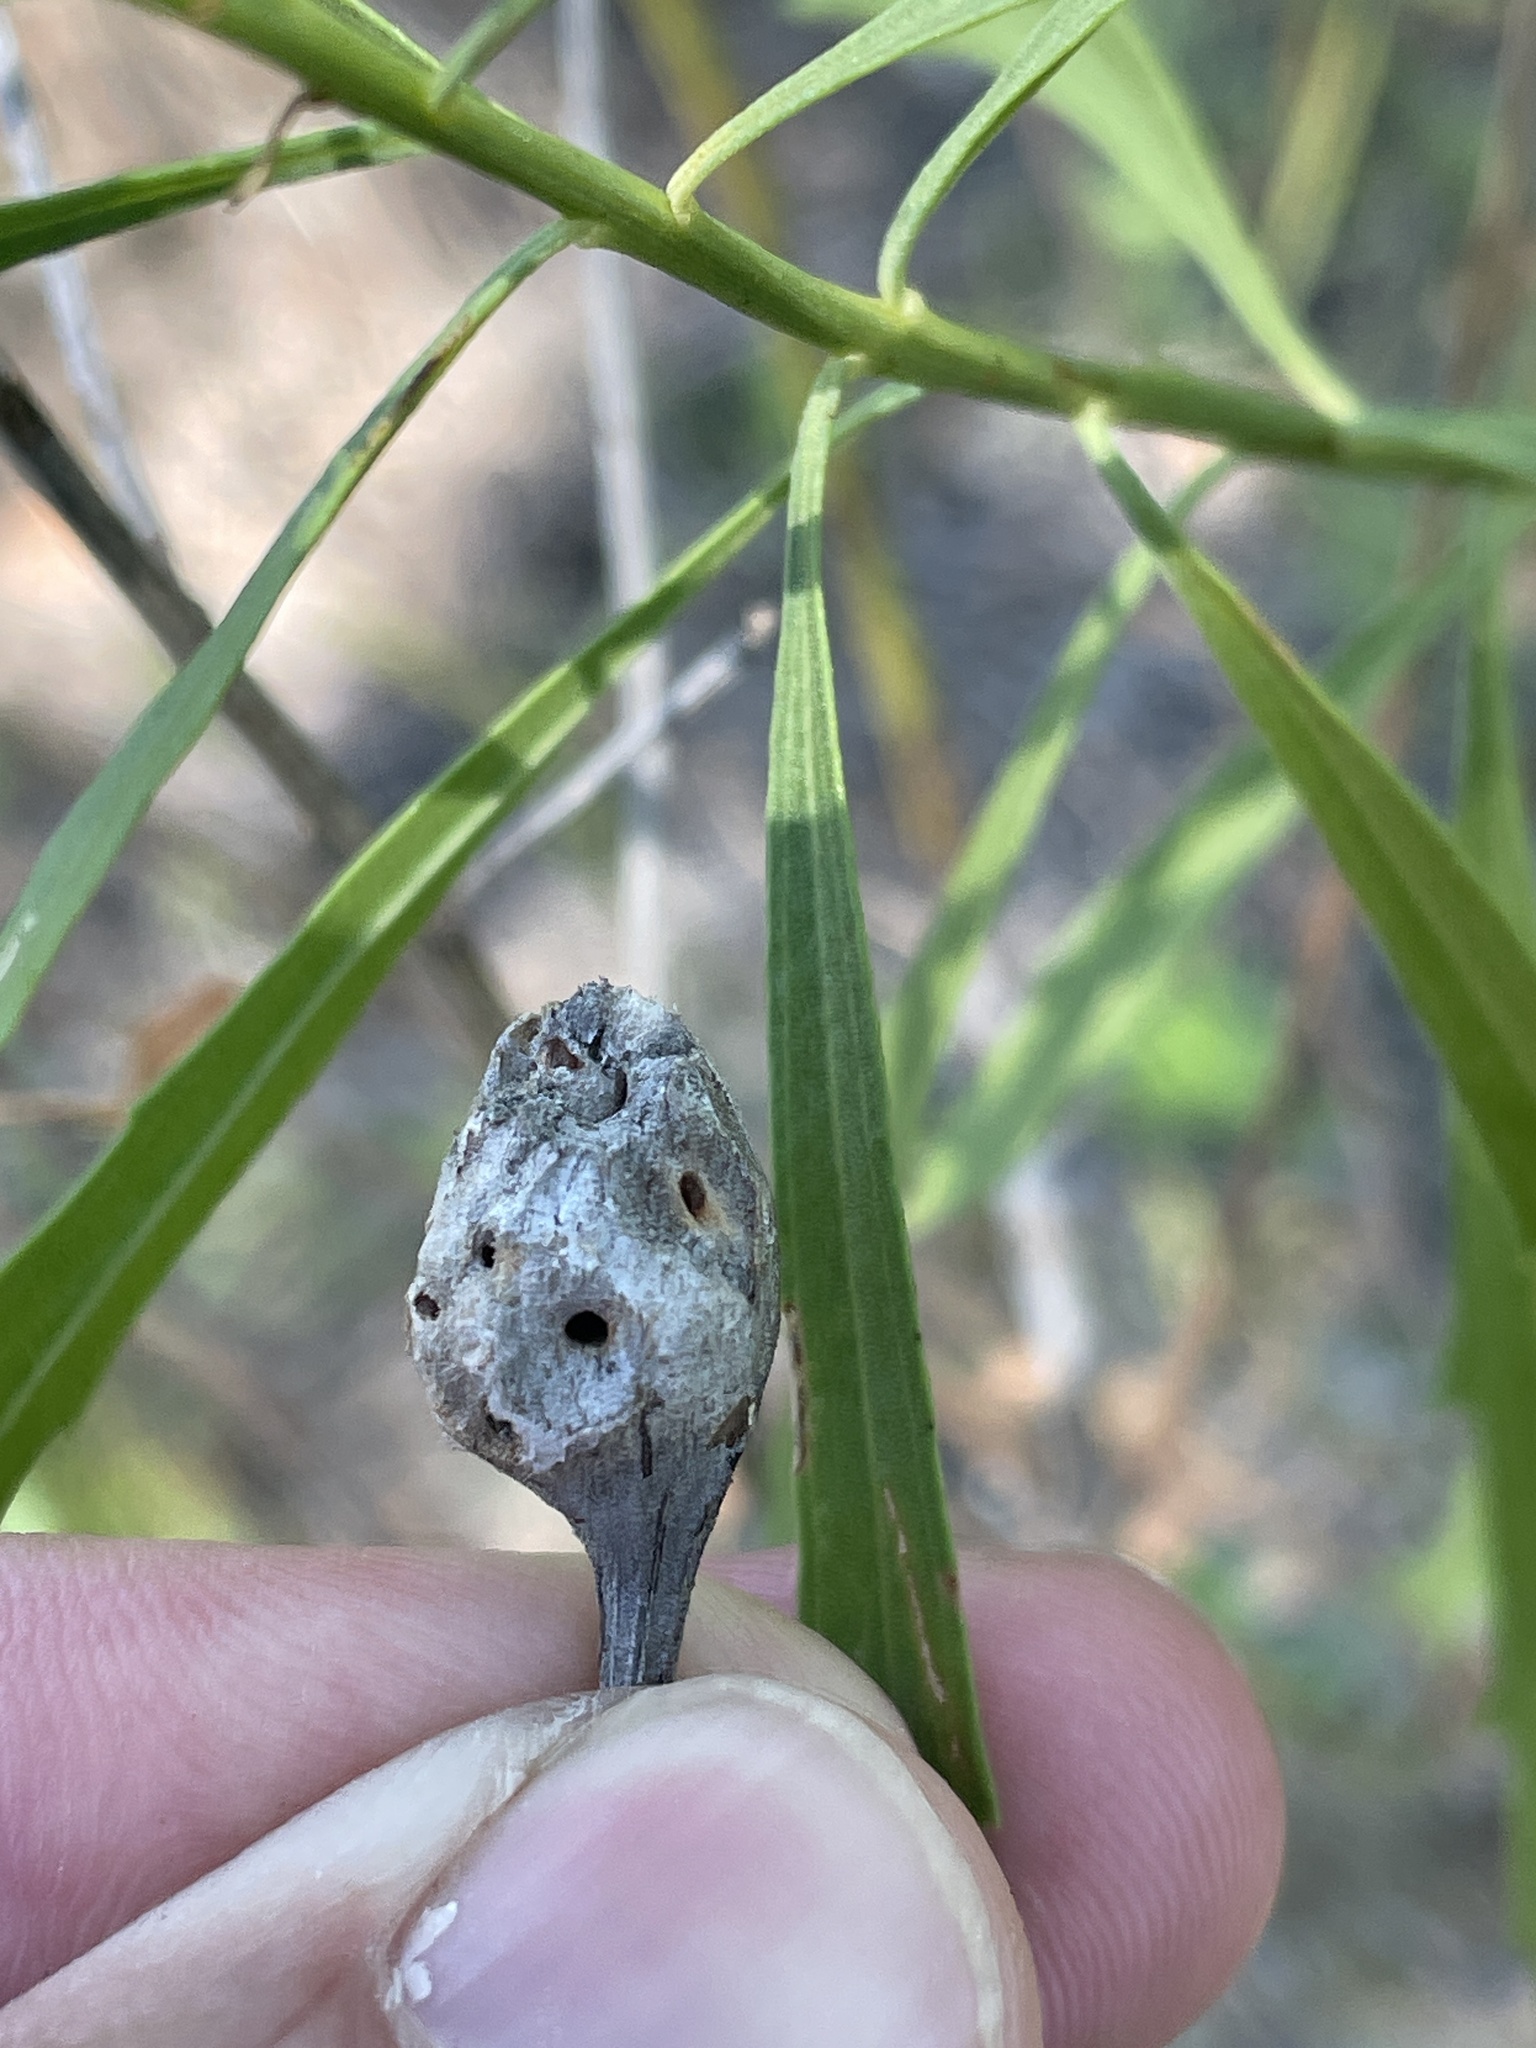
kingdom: Animalia
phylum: Arthropoda
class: Insecta
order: Diptera
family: Cecidomyiidae
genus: Neolasioptera
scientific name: Neolasioptera lathami
